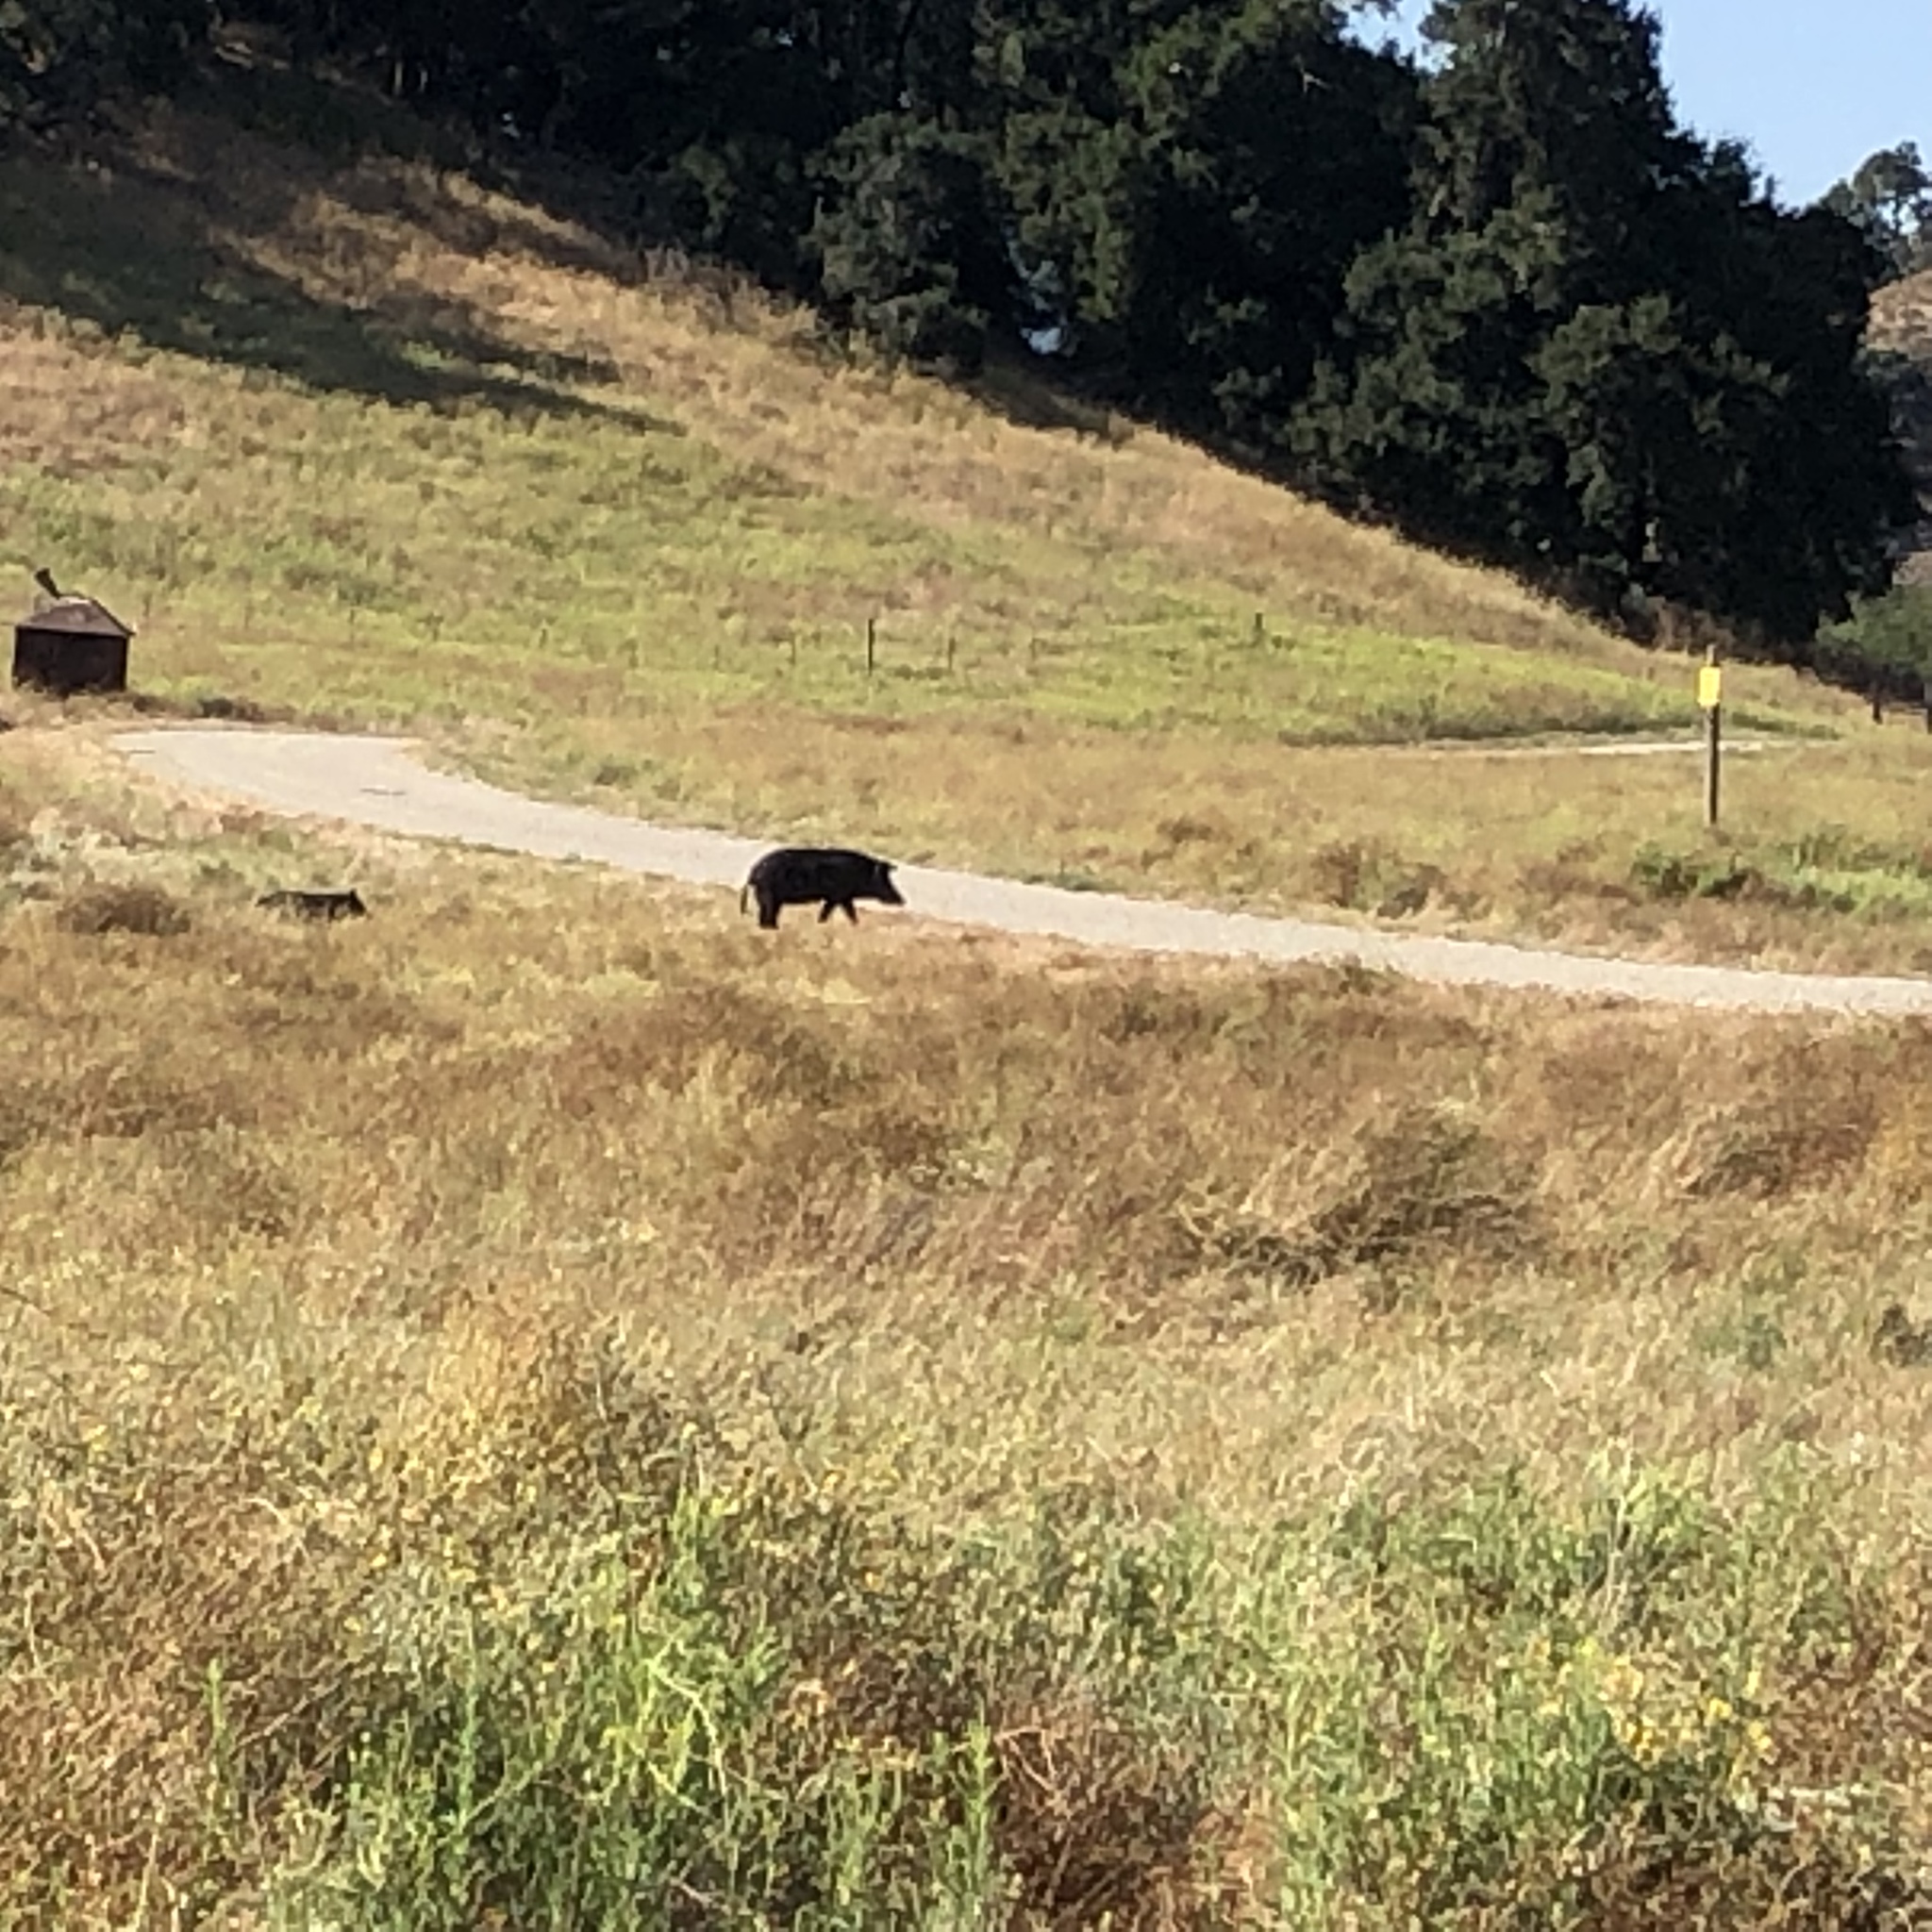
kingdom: Animalia
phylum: Chordata
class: Mammalia
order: Artiodactyla
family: Suidae
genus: Sus
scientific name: Sus scrofa
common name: Wild boar
